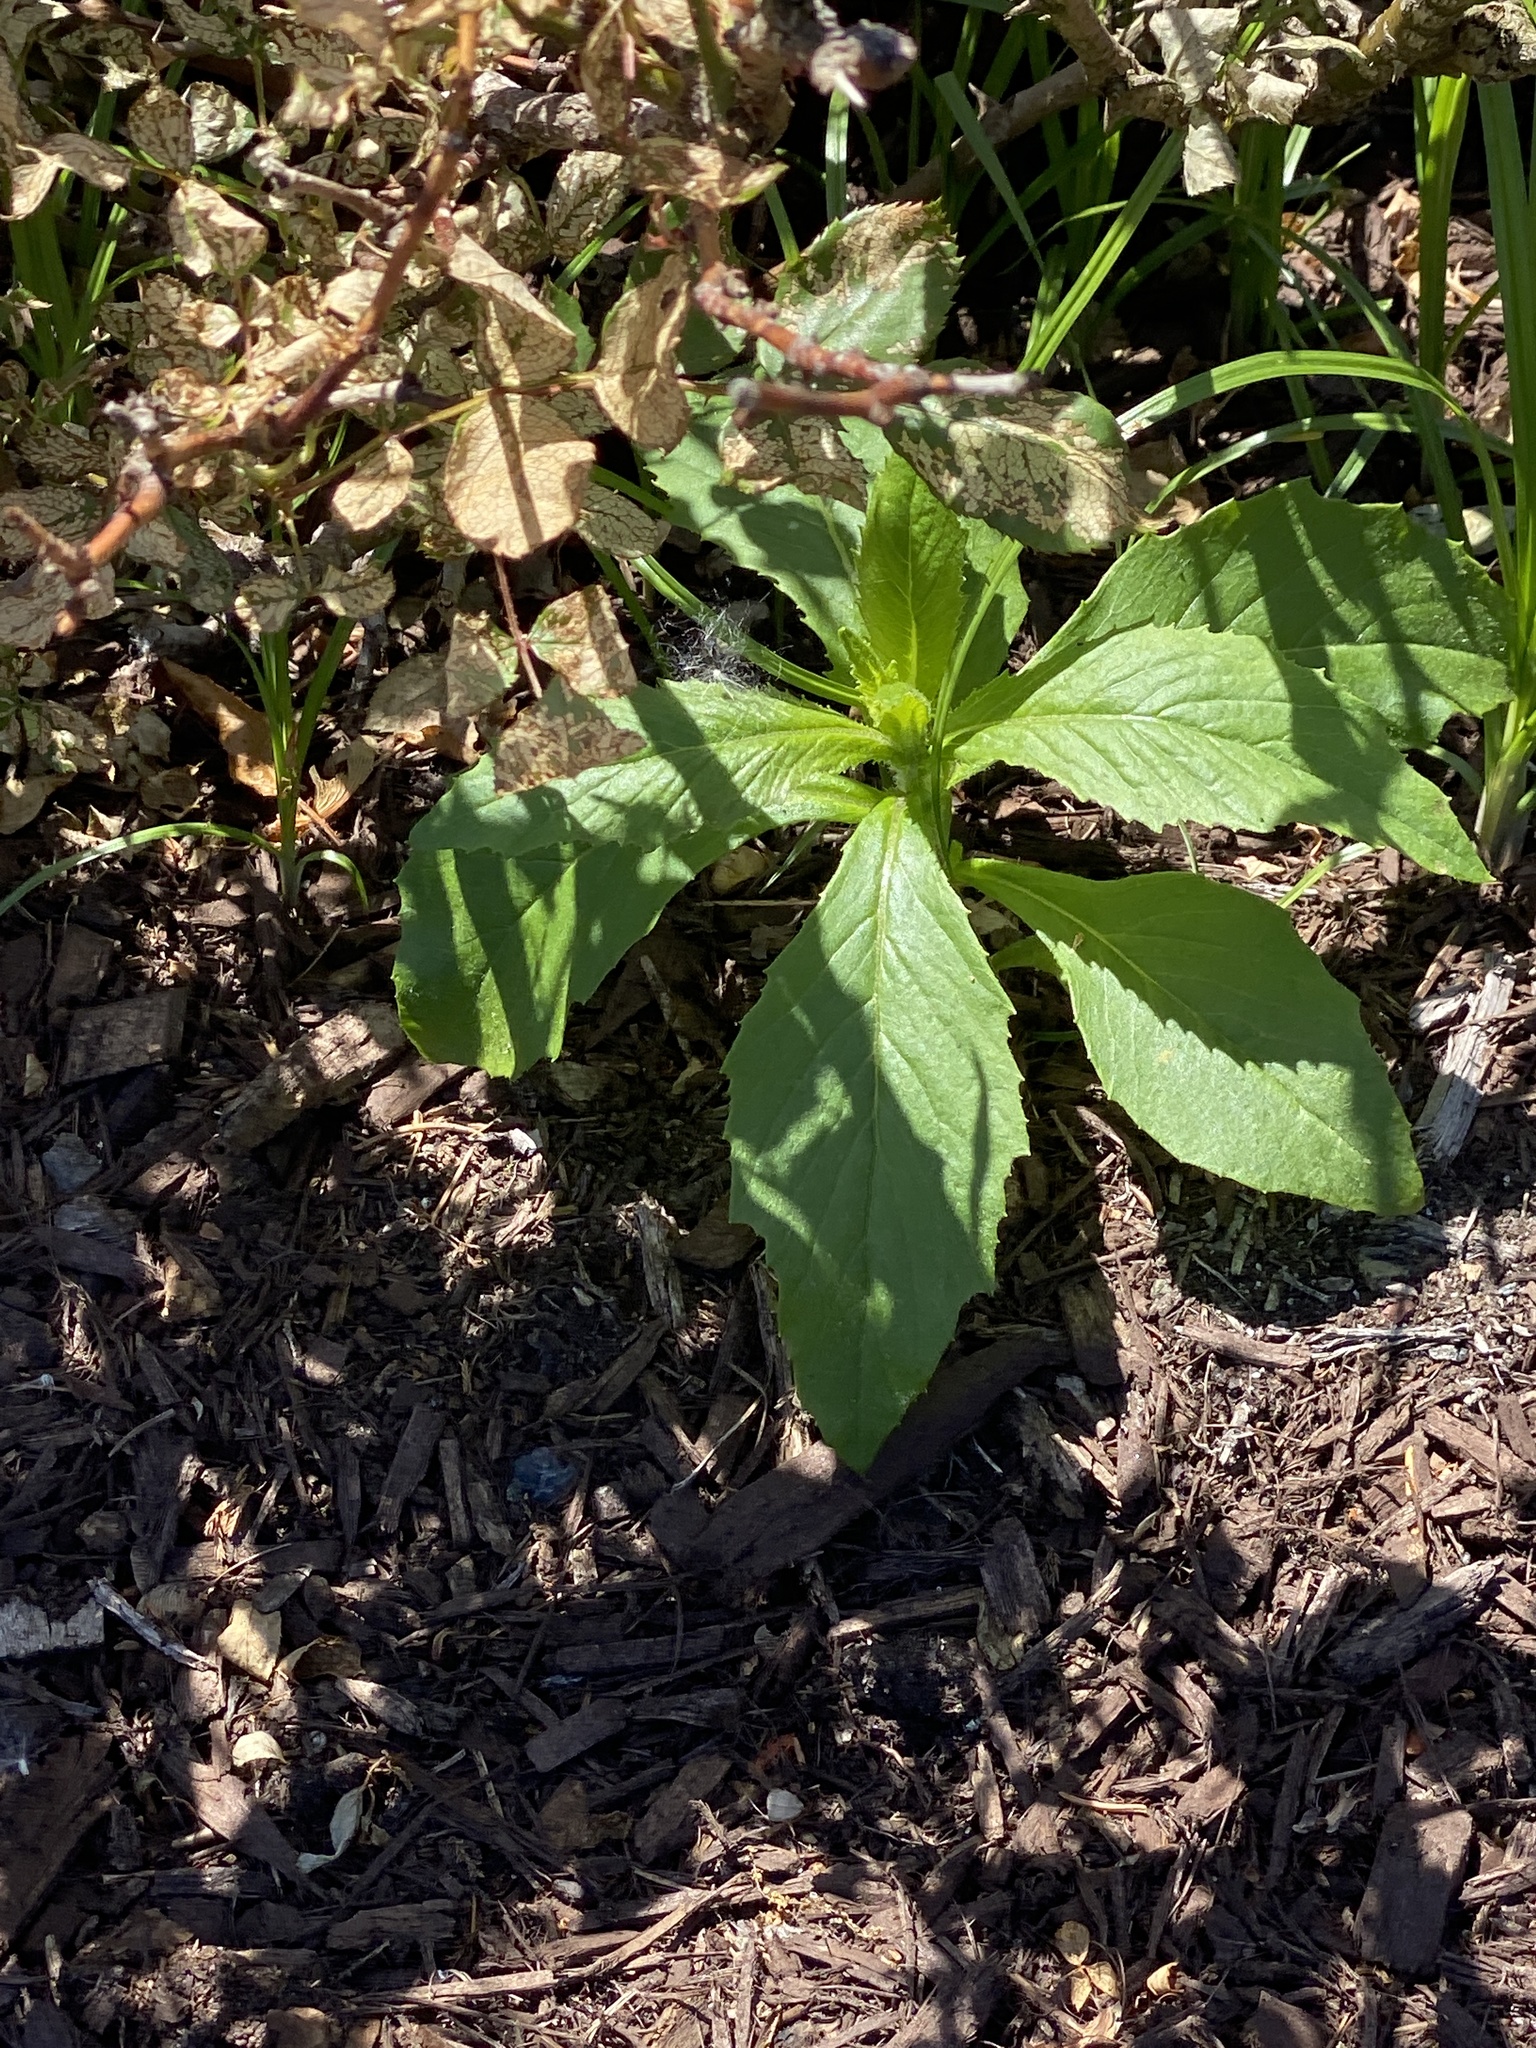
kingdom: Plantae
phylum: Tracheophyta
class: Magnoliopsida
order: Asterales
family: Asteraceae
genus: Erechtites
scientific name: Erechtites hieraciifolius
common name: American burnweed
